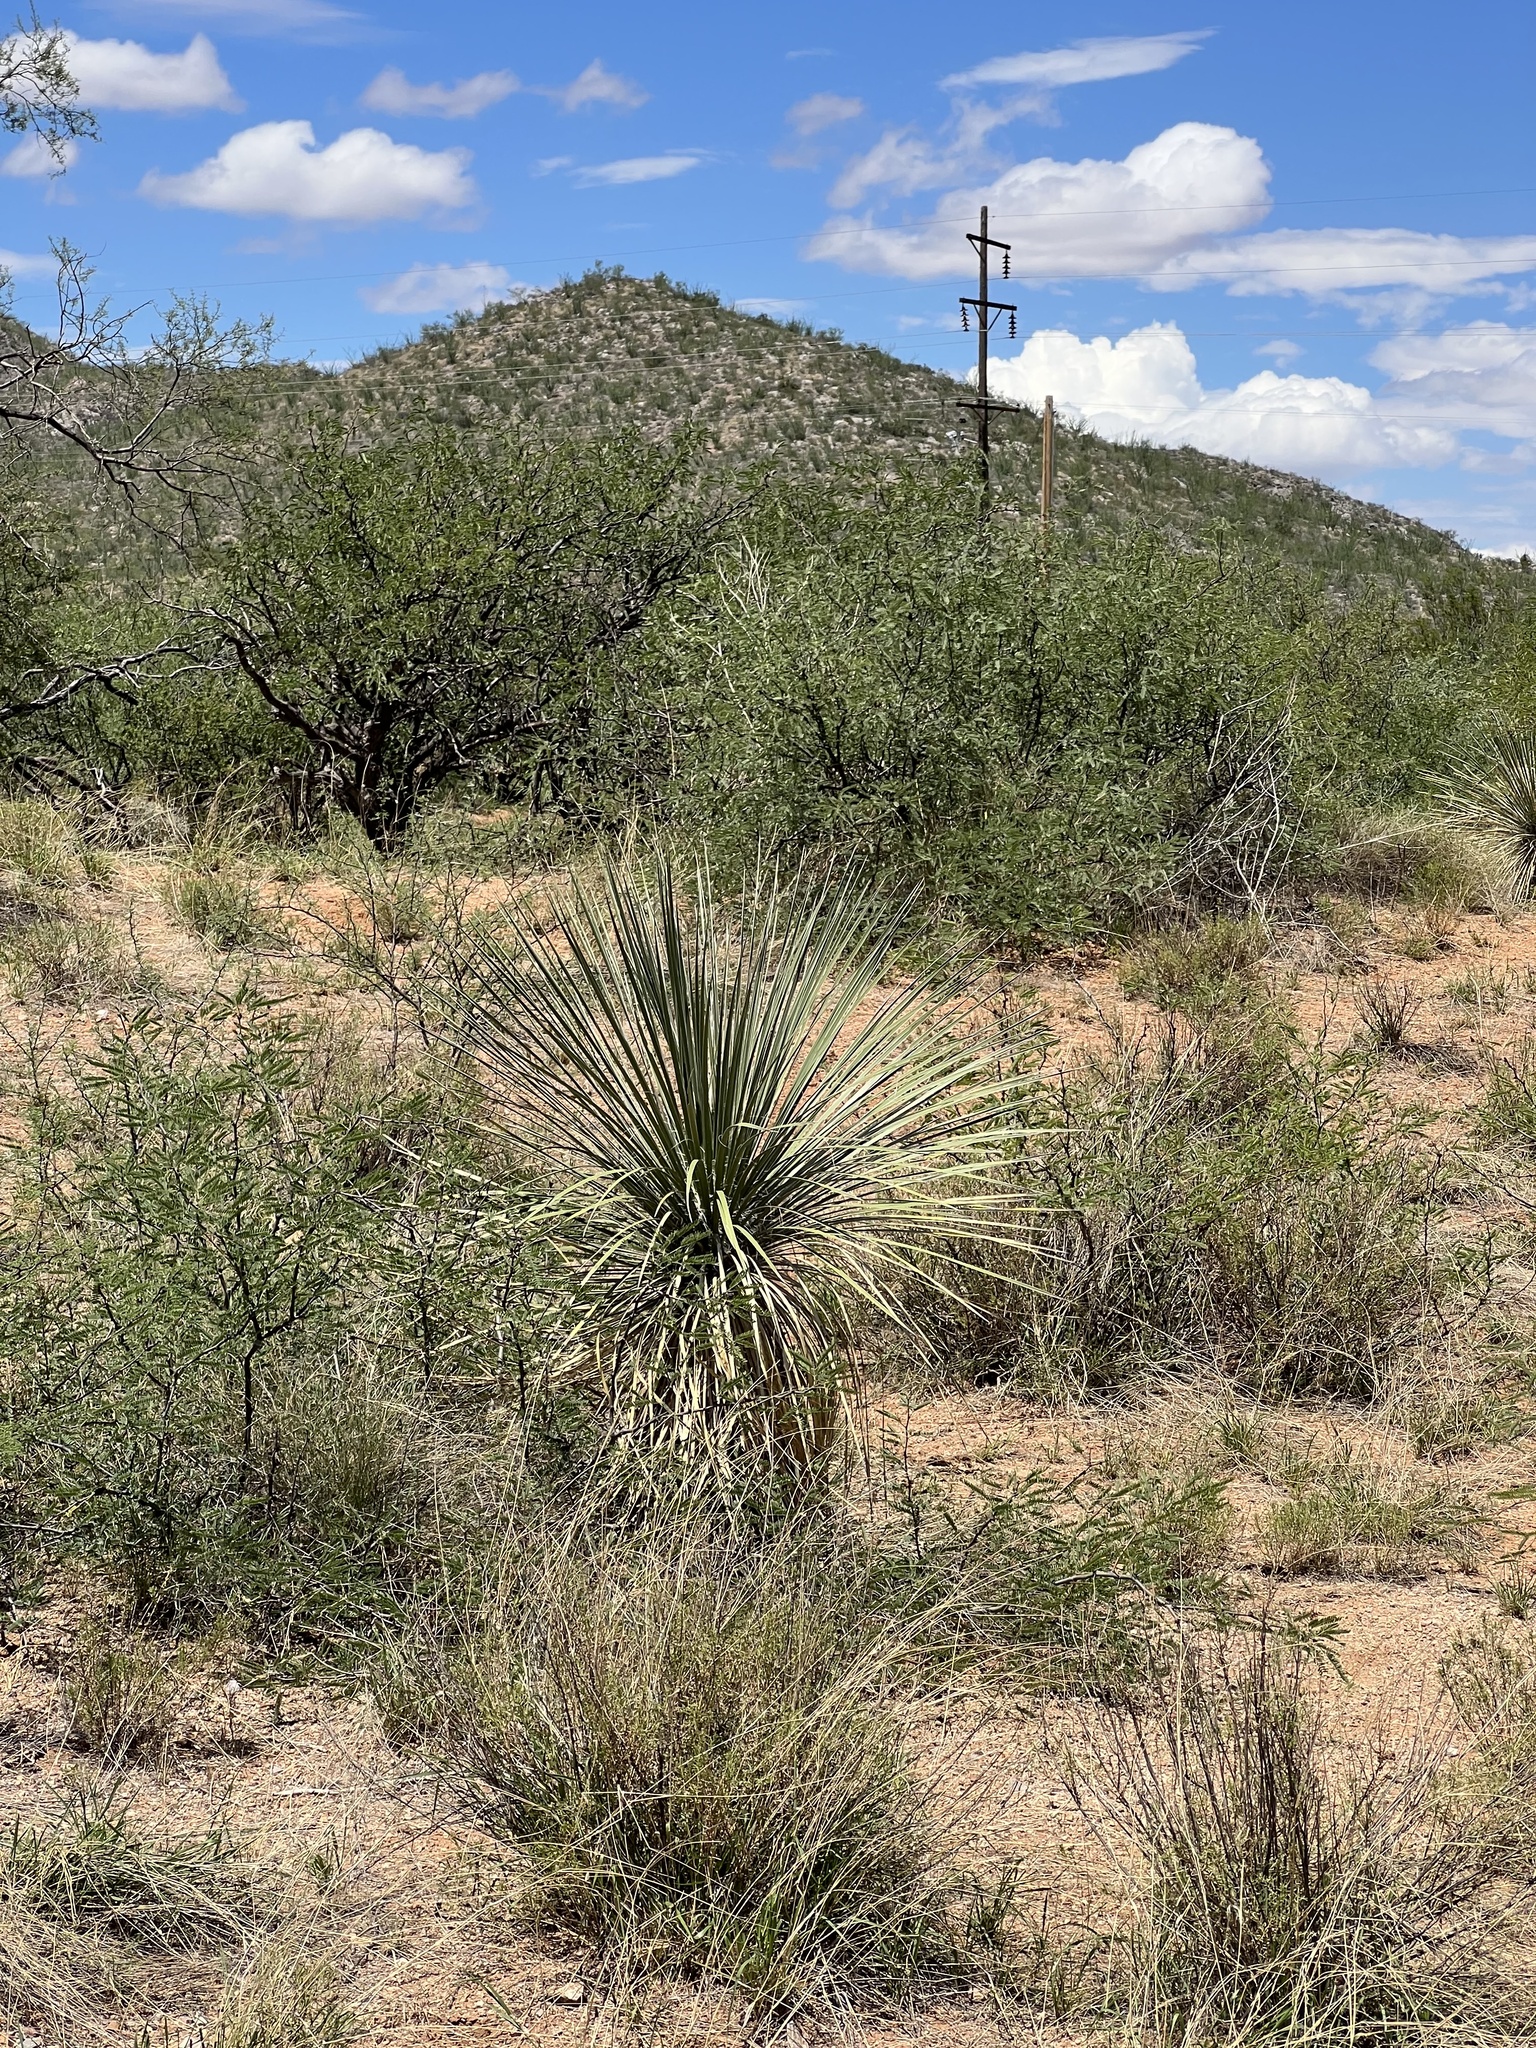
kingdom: Plantae
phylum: Tracheophyta
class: Liliopsida
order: Asparagales
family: Asparagaceae
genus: Yucca
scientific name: Yucca elata
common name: Palmella
